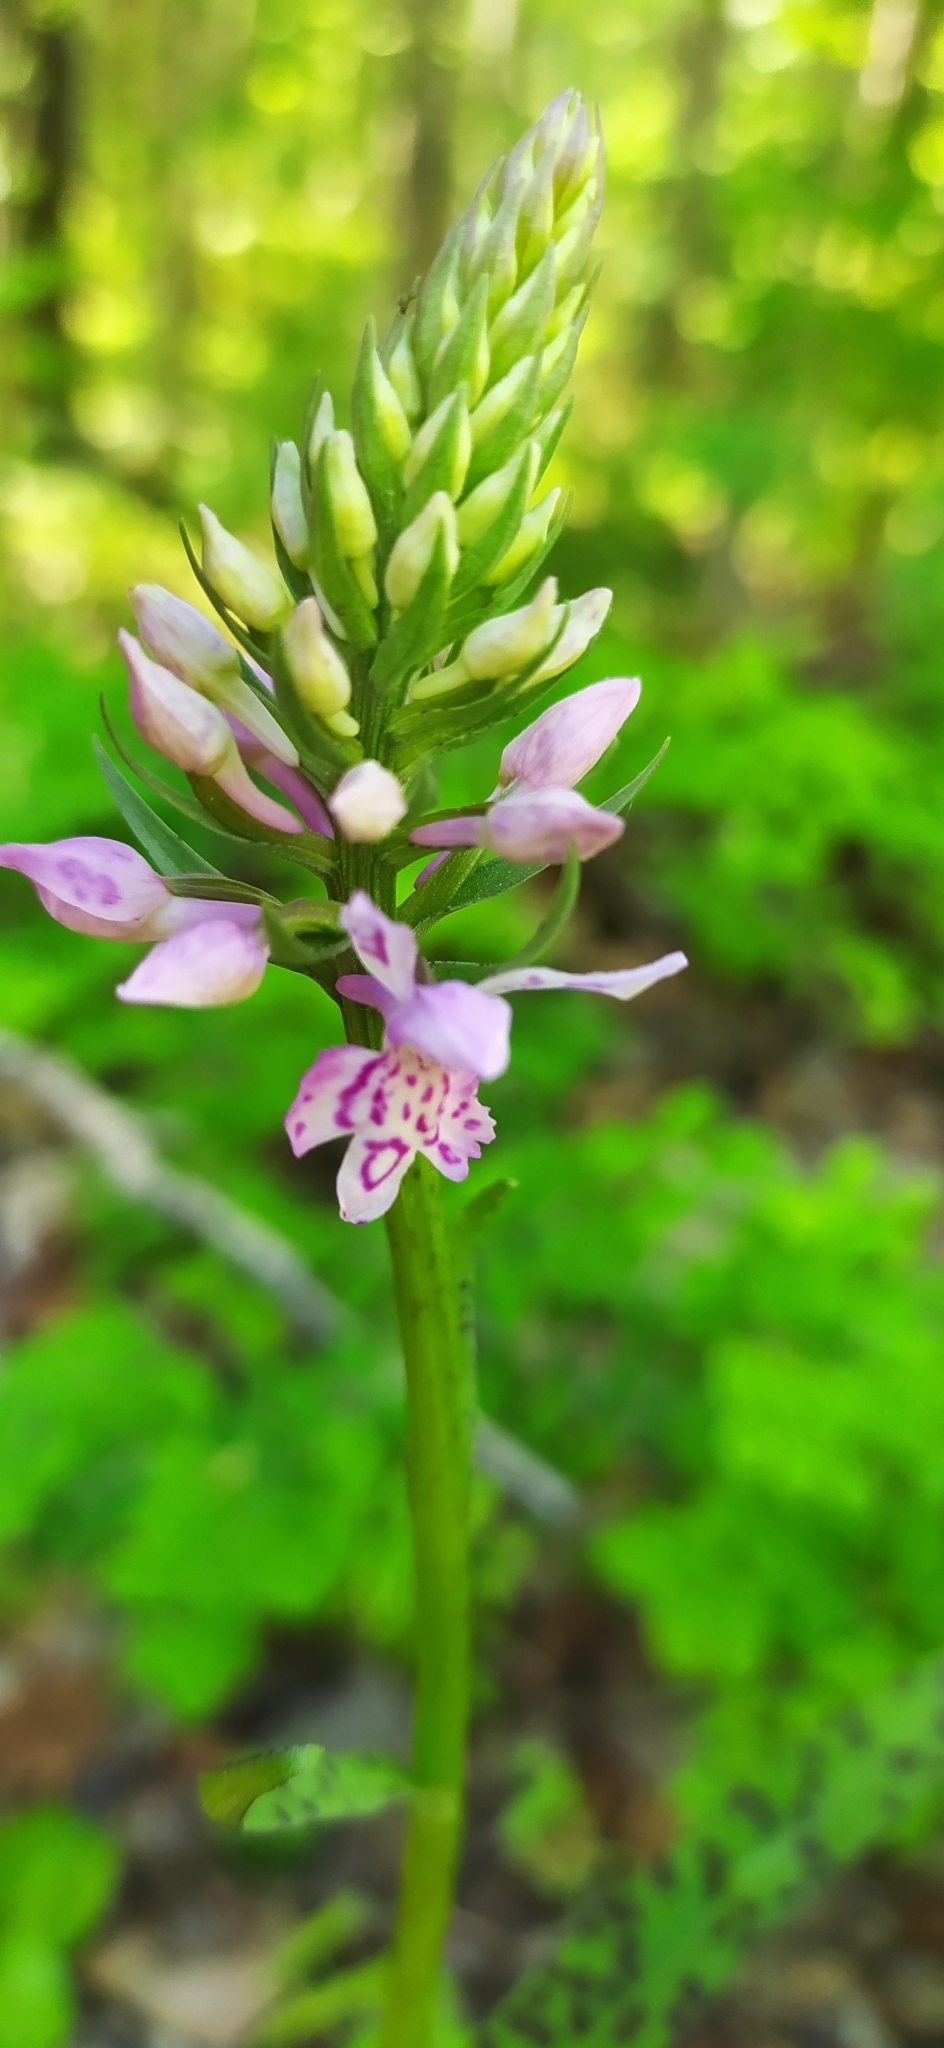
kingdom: Plantae
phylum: Tracheophyta
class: Liliopsida
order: Asparagales
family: Orchidaceae
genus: Dactylorhiza
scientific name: Dactylorhiza maculata
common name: Heath spotted-orchid
